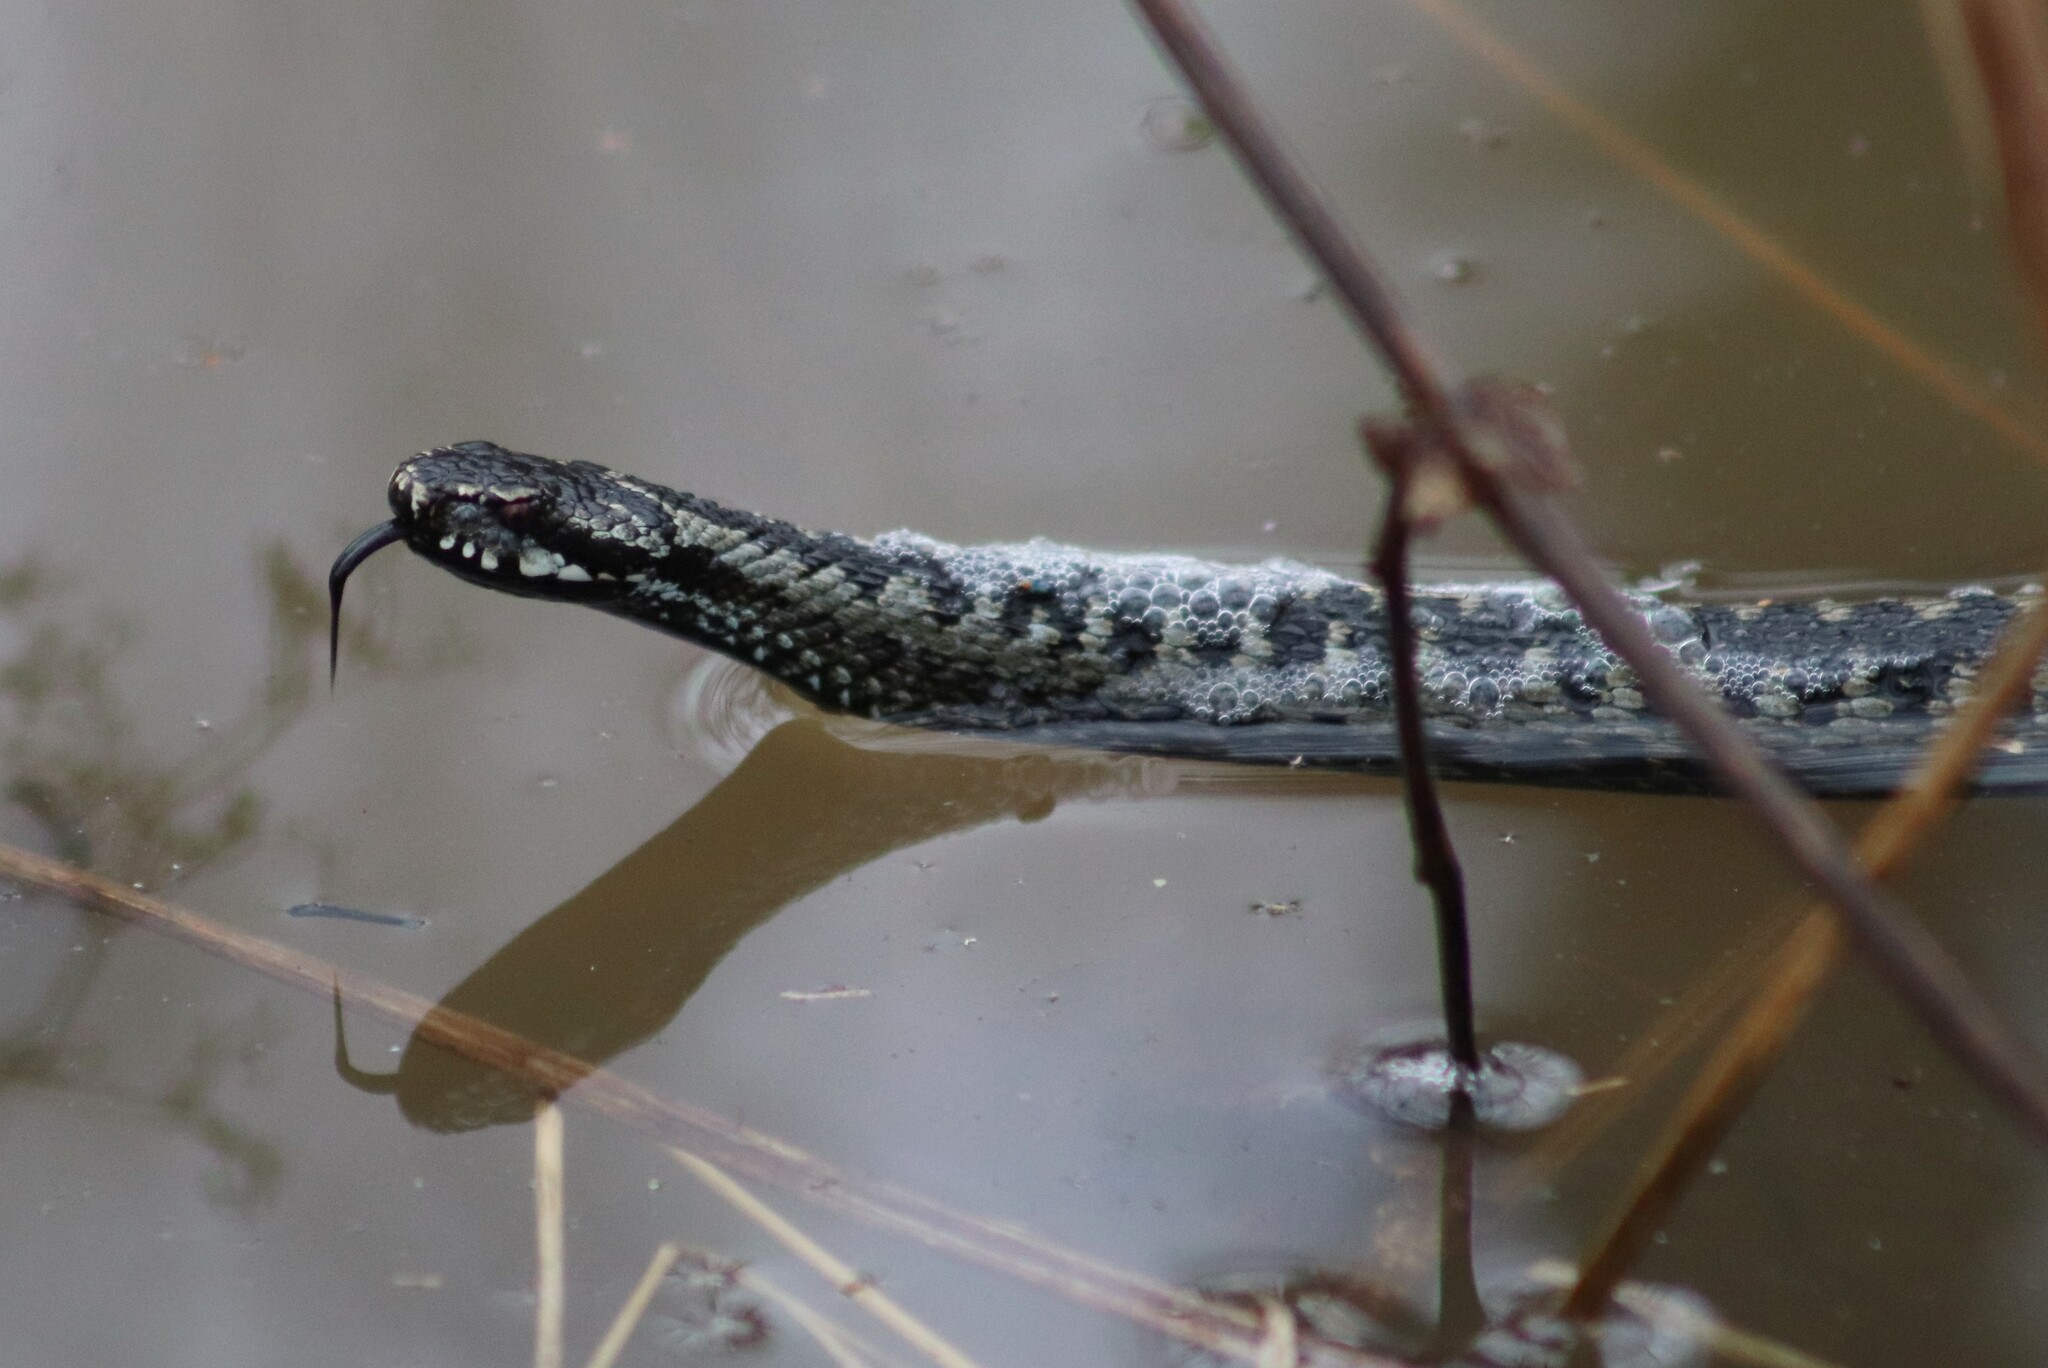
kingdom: Animalia
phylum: Chordata
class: Squamata
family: Viperidae
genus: Vipera
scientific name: Vipera berus
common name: Adder
